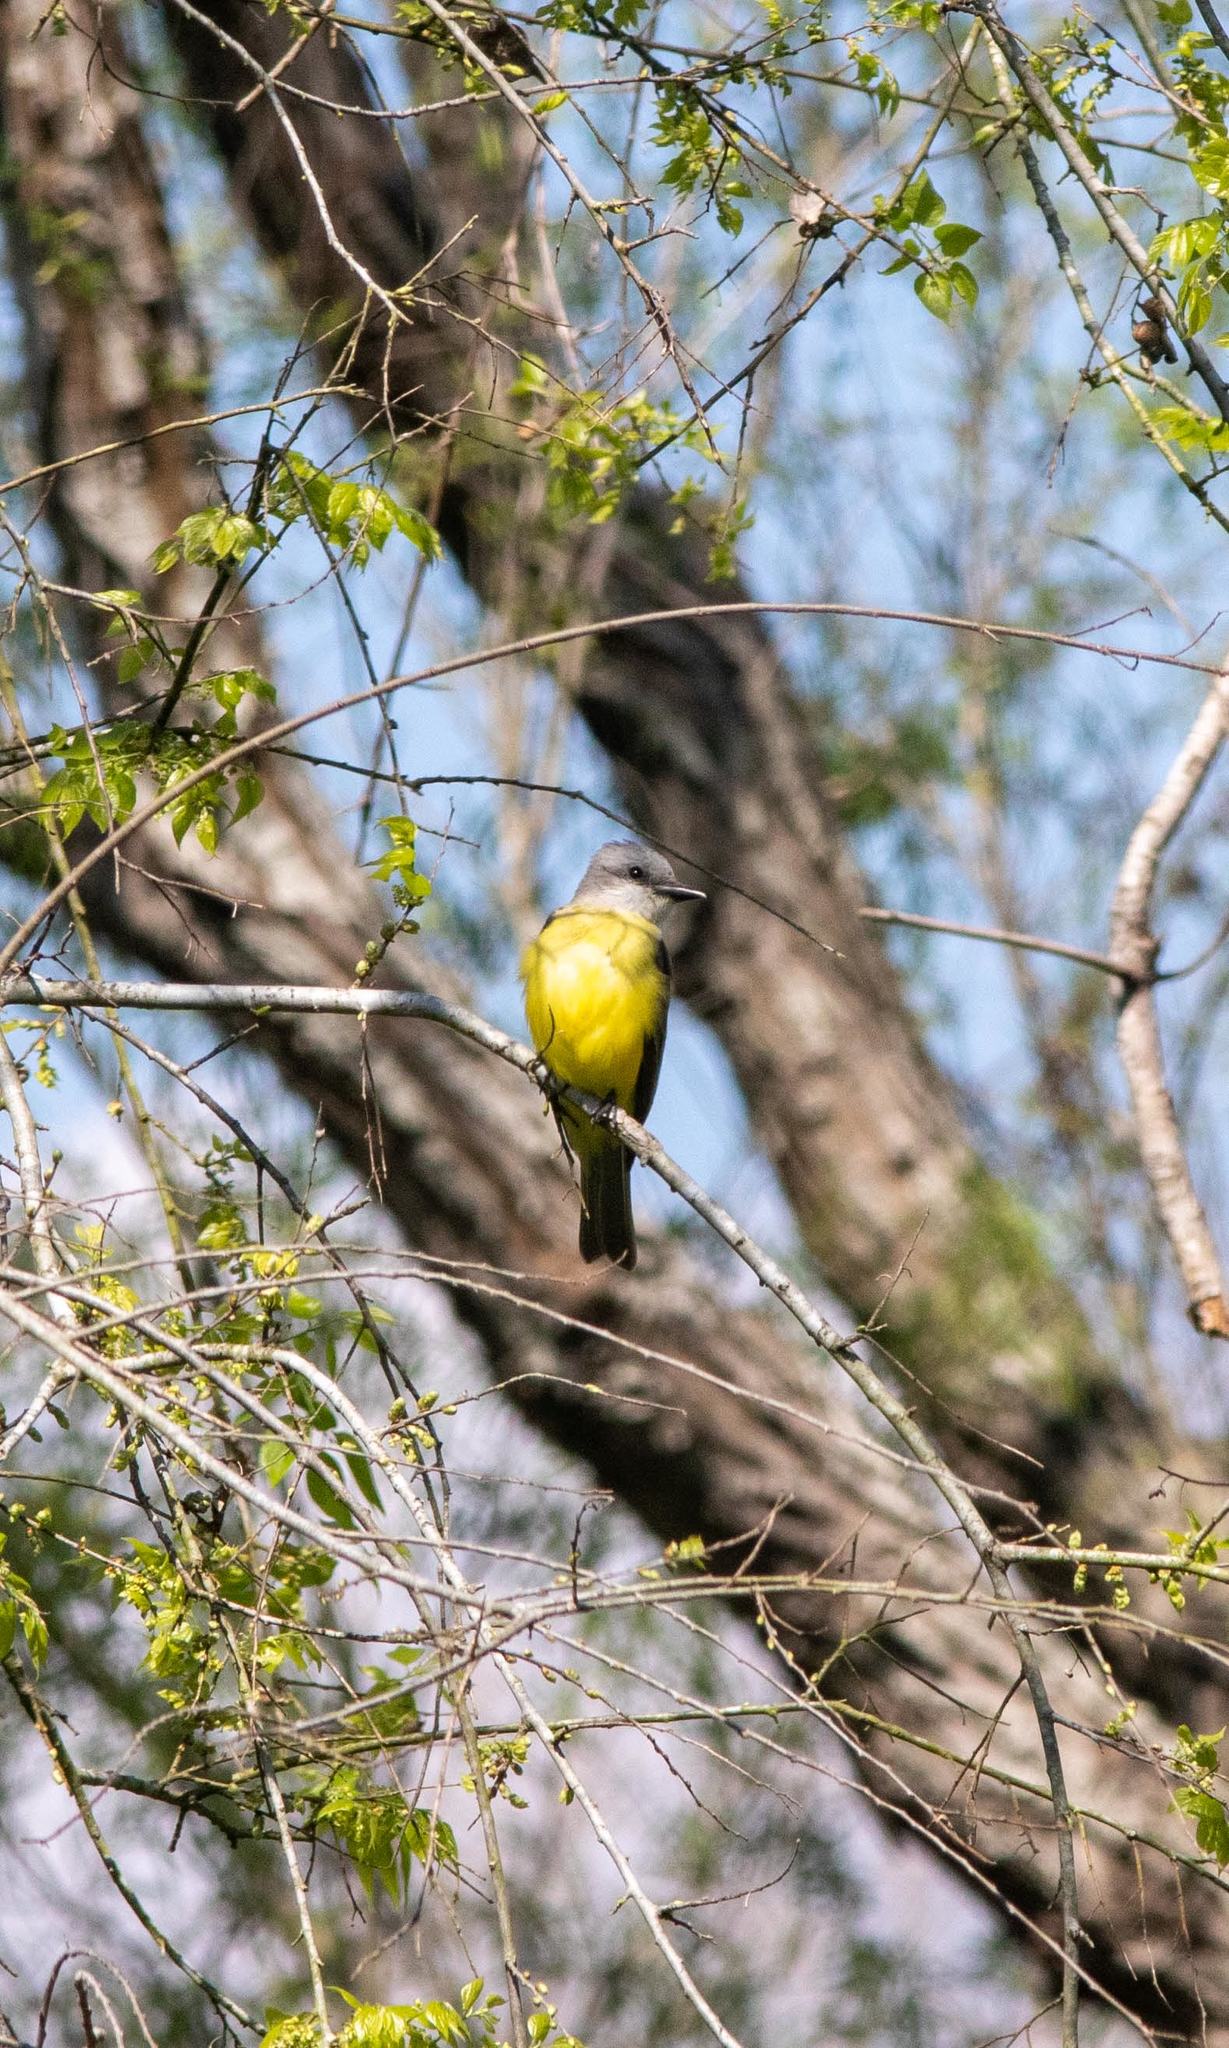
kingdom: Animalia
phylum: Chordata
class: Aves
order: Passeriformes
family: Tyrannidae
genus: Tyrannus
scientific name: Tyrannus couchii
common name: Couch's kingbird
